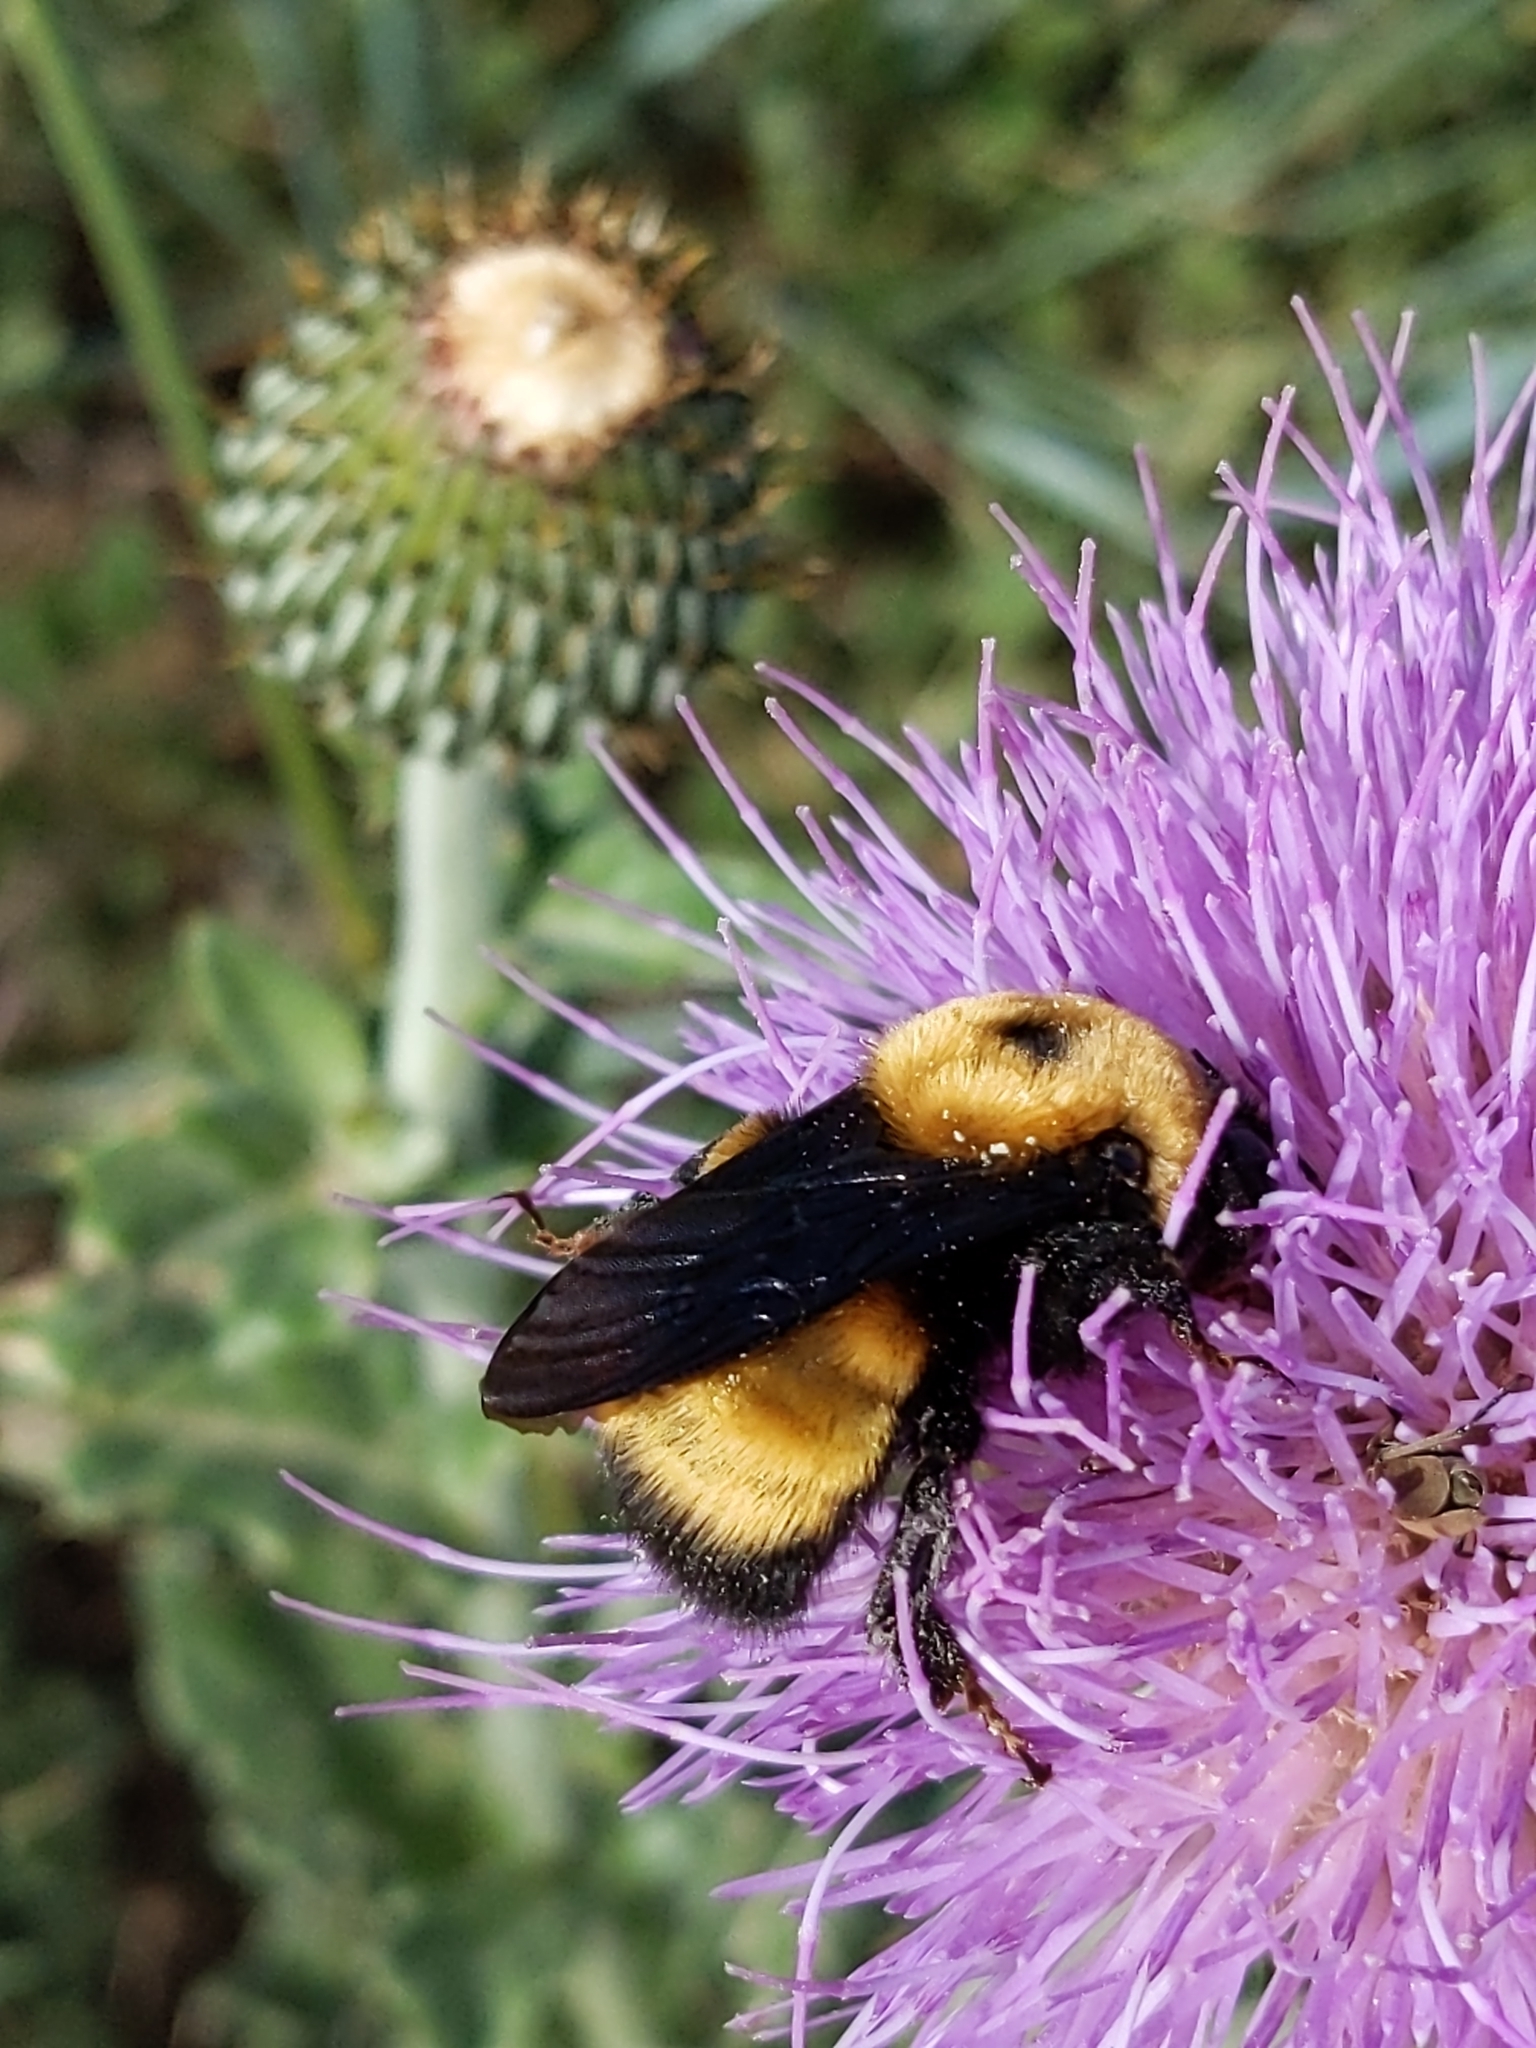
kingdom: Animalia
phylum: Arthropoda
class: Insecta
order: Hymenoptera
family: Apidae
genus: Bombus
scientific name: Bombus nevadensis
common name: Nevada bumble bee
